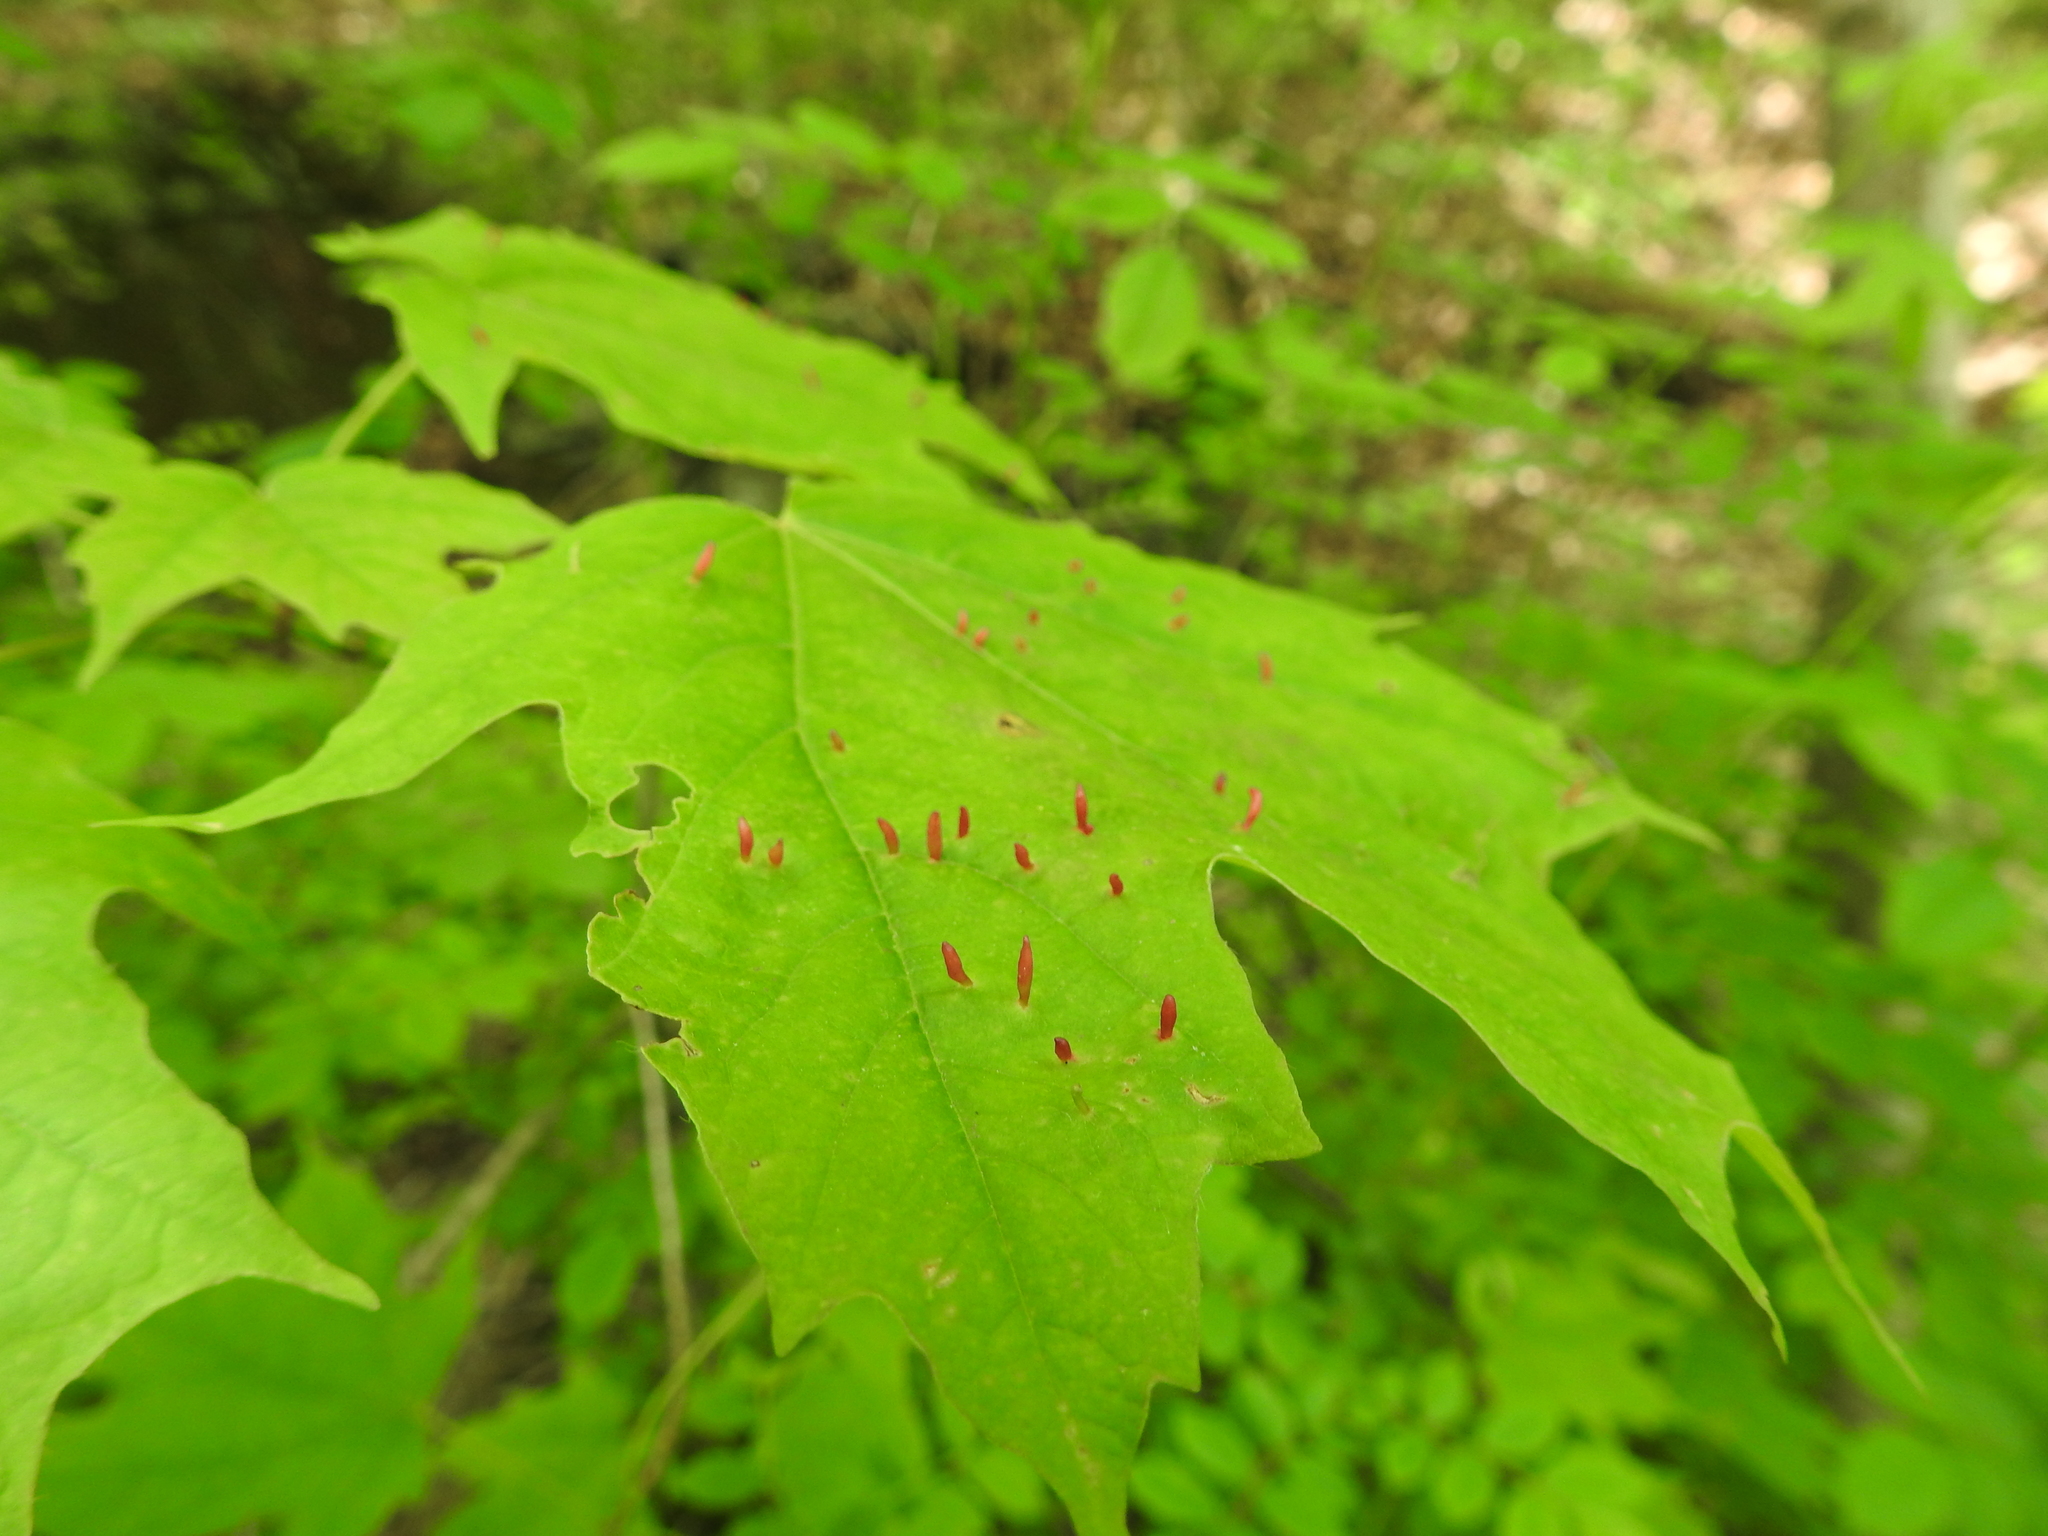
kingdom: Animalia
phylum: Arthropoda
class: Arachnida
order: Trombidiformes
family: Eriophyidae
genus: Vasates
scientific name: Vasates aceriscrumena
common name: Maple spindle gall mite
